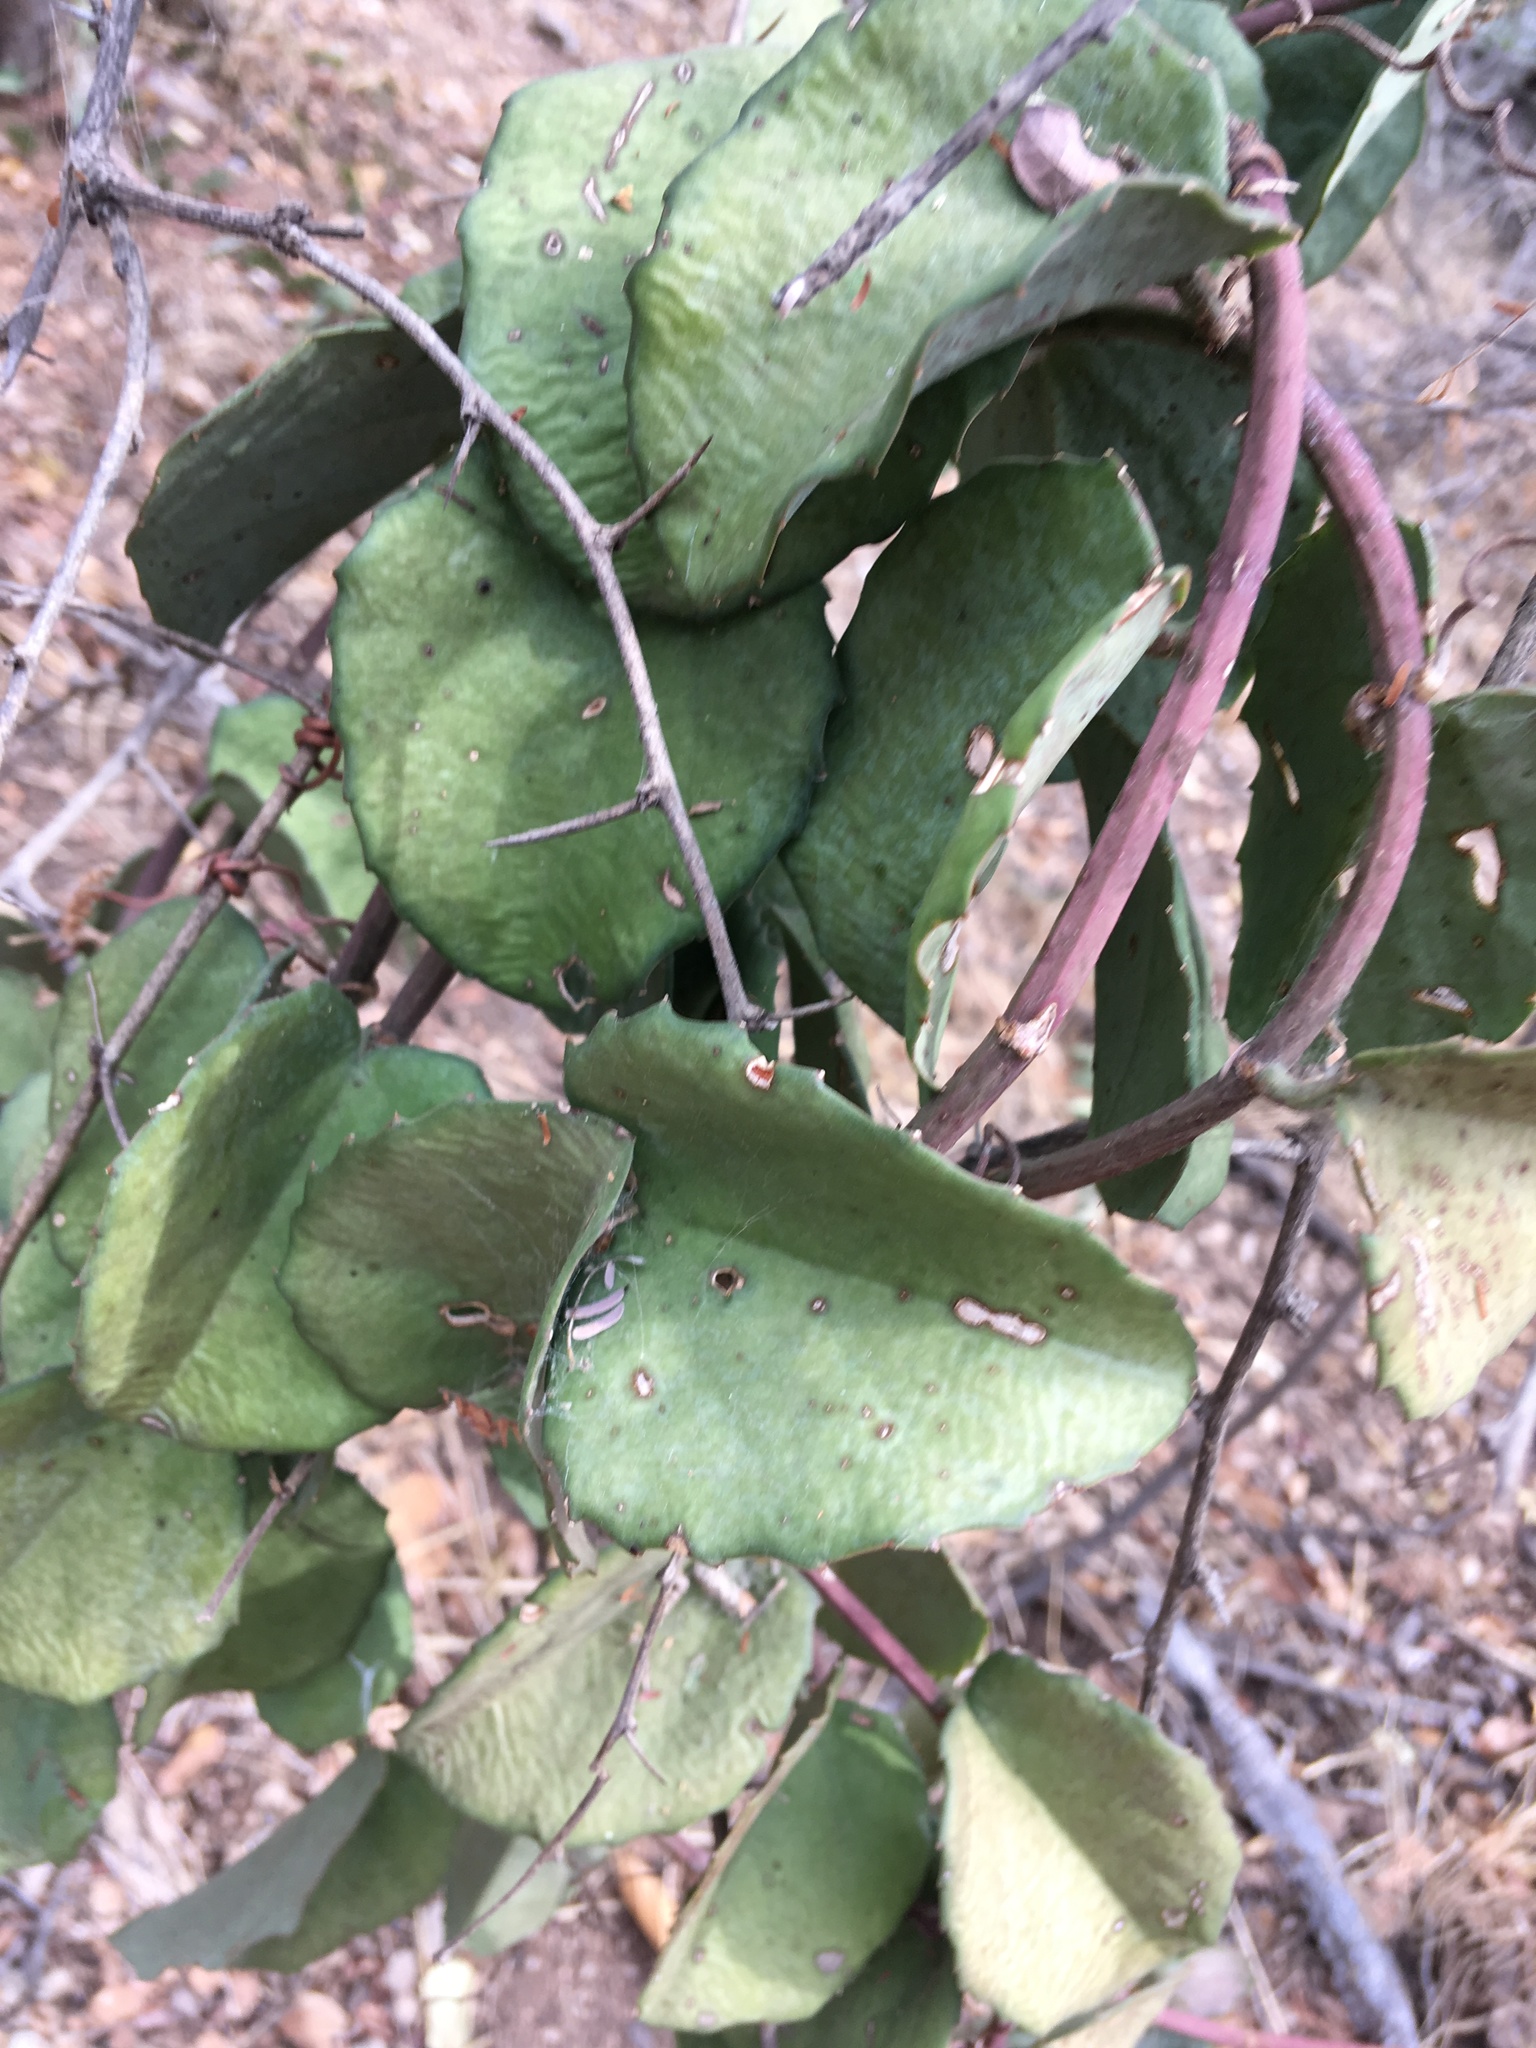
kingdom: Plantae
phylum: Tracheophyta
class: Magnoliopsida
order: Vitales
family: Vitaceae
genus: Cissus
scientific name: Cissus rotundifolia
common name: Arabian wax cissus
